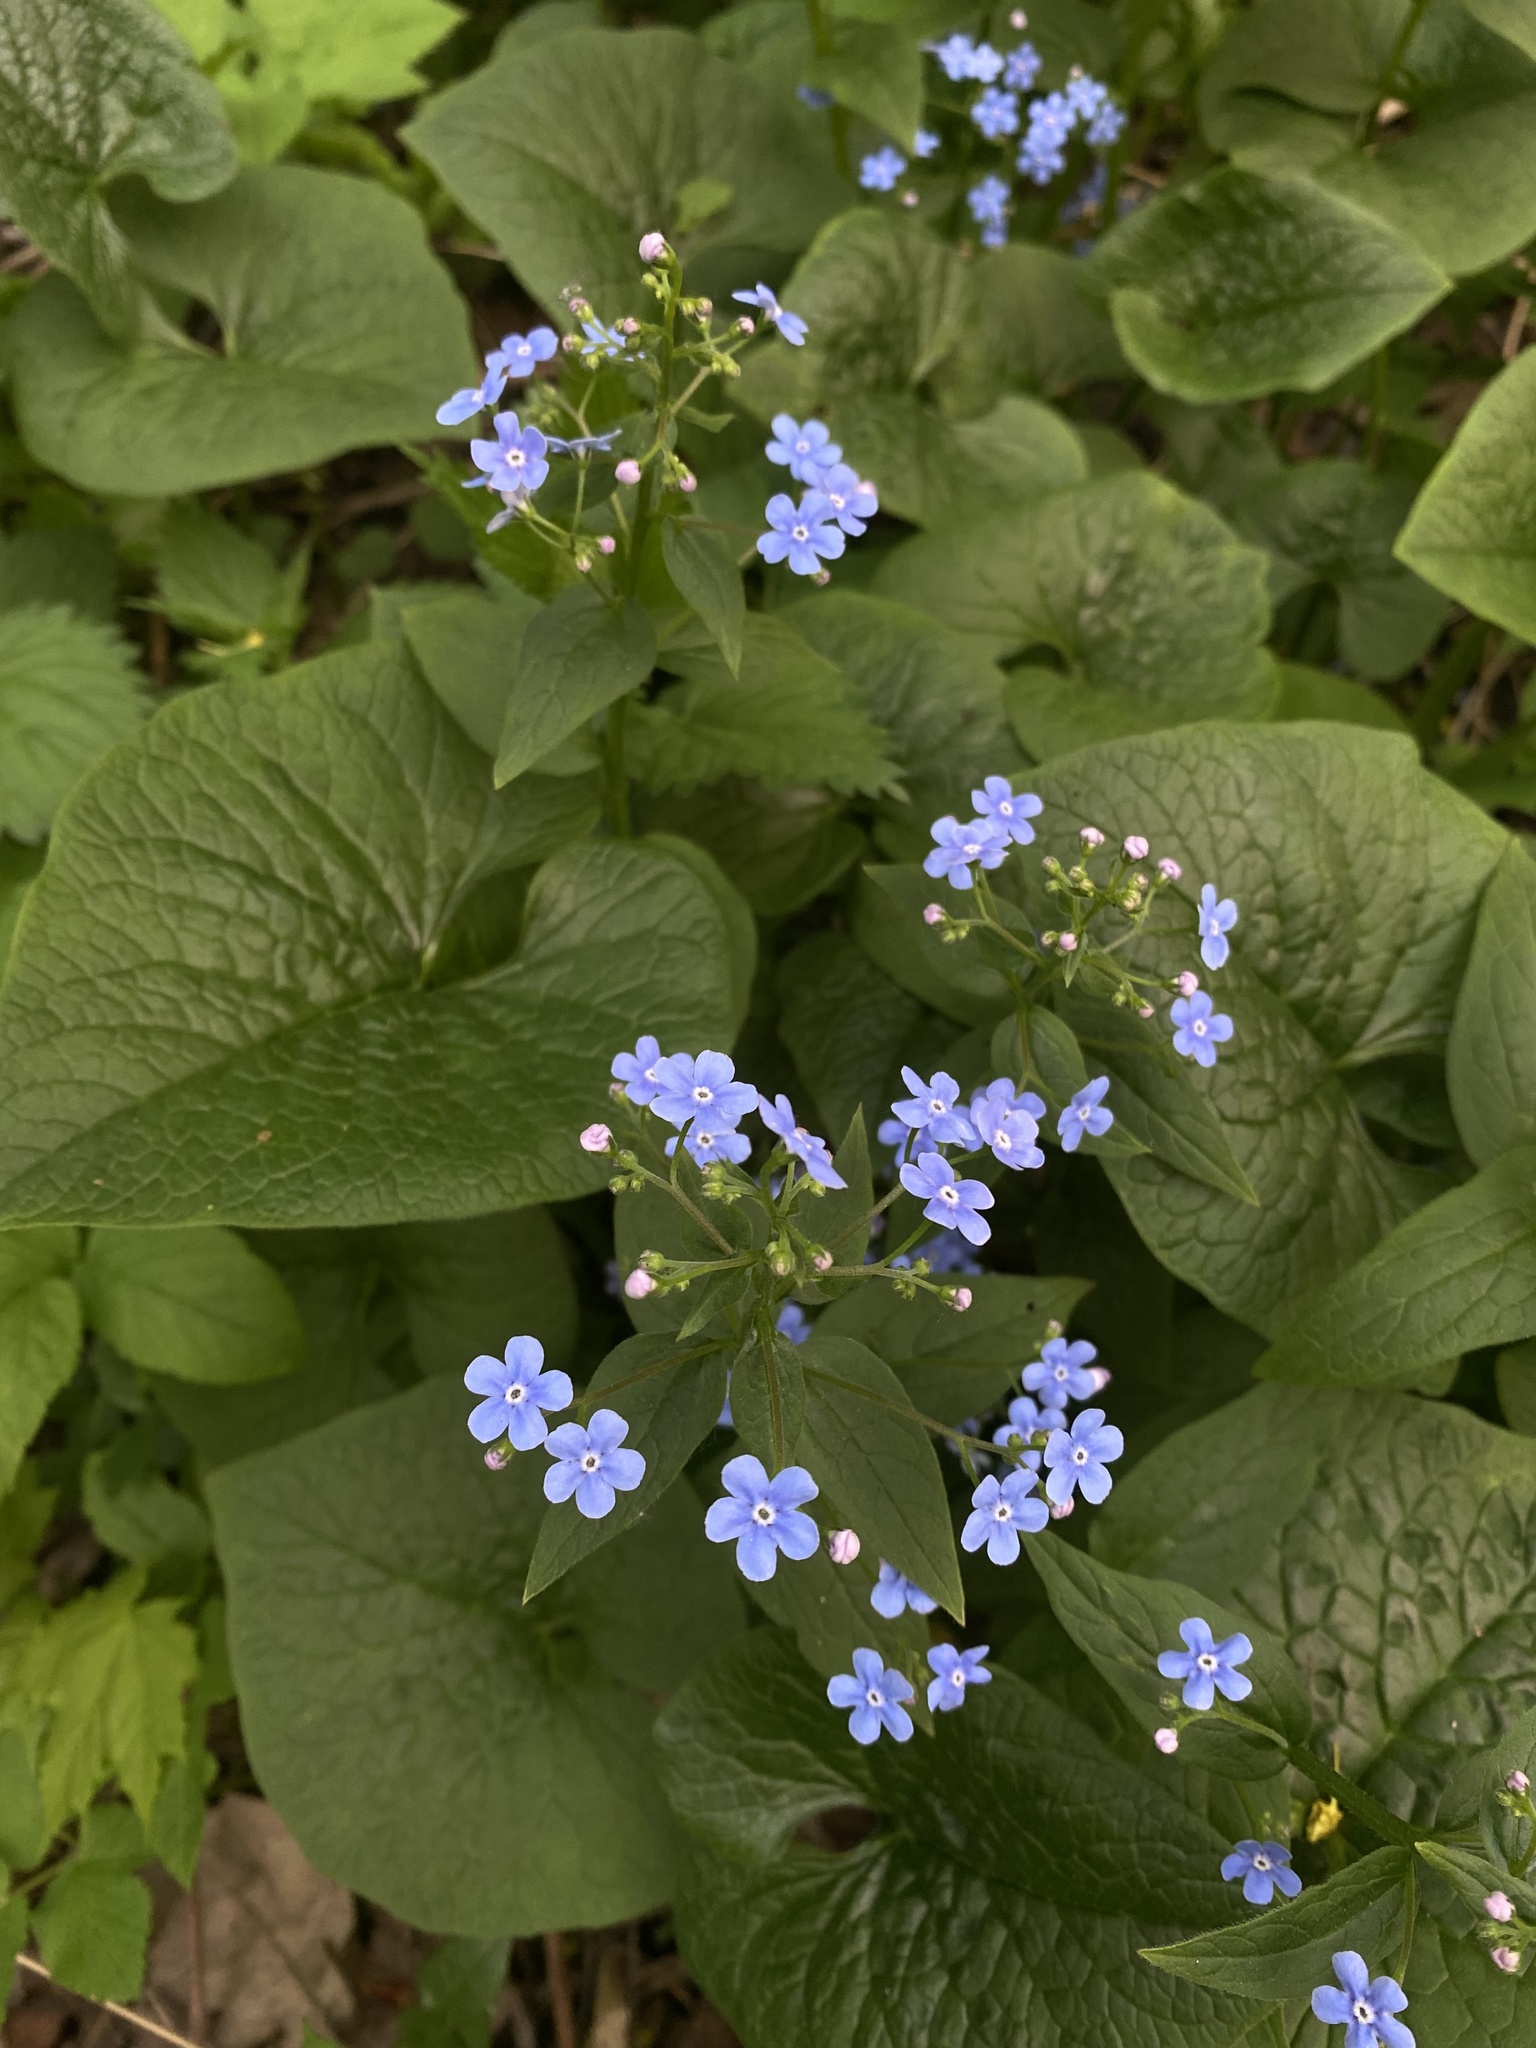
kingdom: Plantae
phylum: Tracheophyta
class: Magnoliopsida
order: Boraginales
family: Boraginaceae
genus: Brunnera
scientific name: Brunnera sibirica
